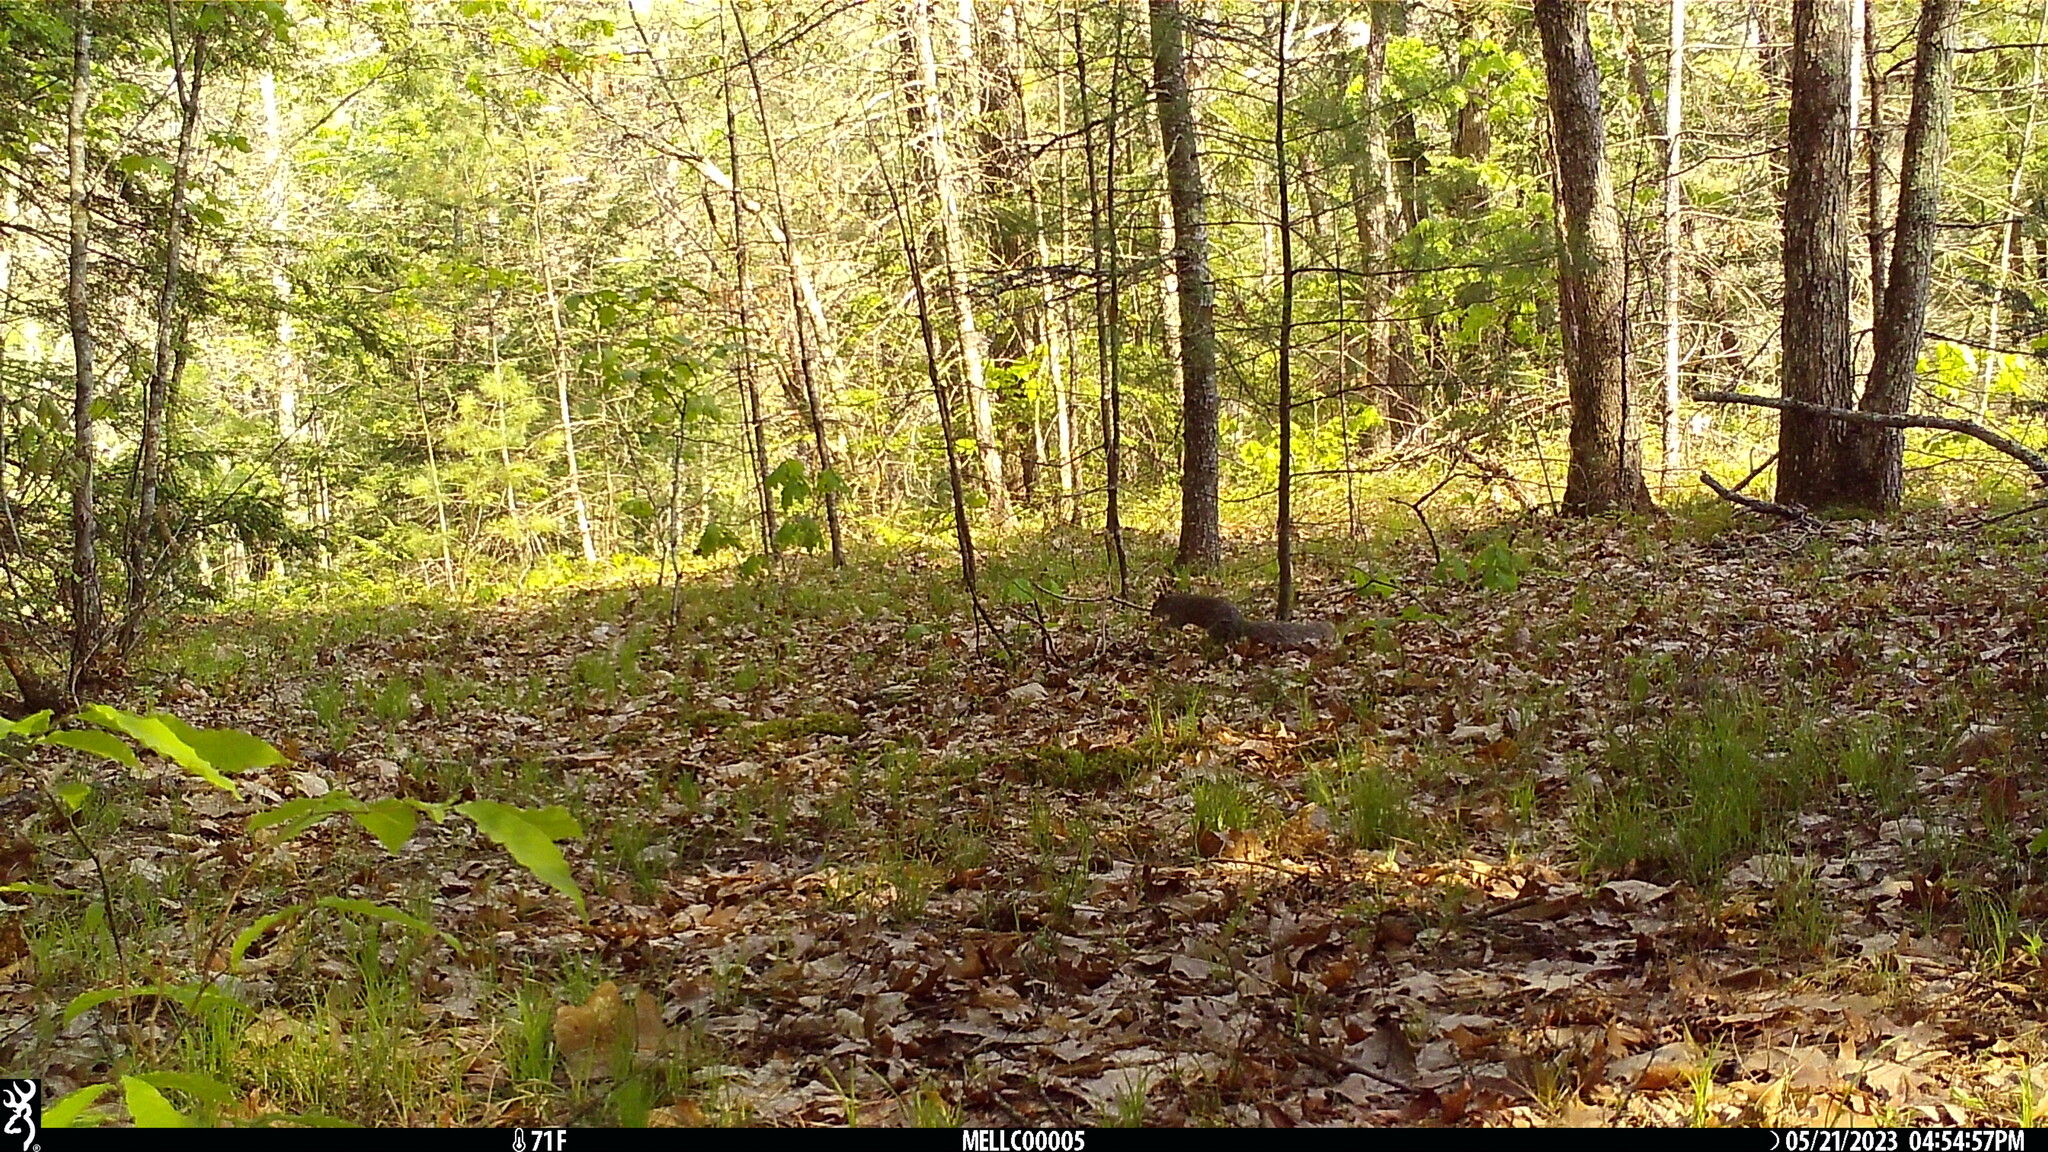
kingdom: Animalia
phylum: Chordata
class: Mammalia
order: Rodentia
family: Sciuridae
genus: Sciurus
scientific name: Sciurus carolinensis
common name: Eastern gray squirrel
